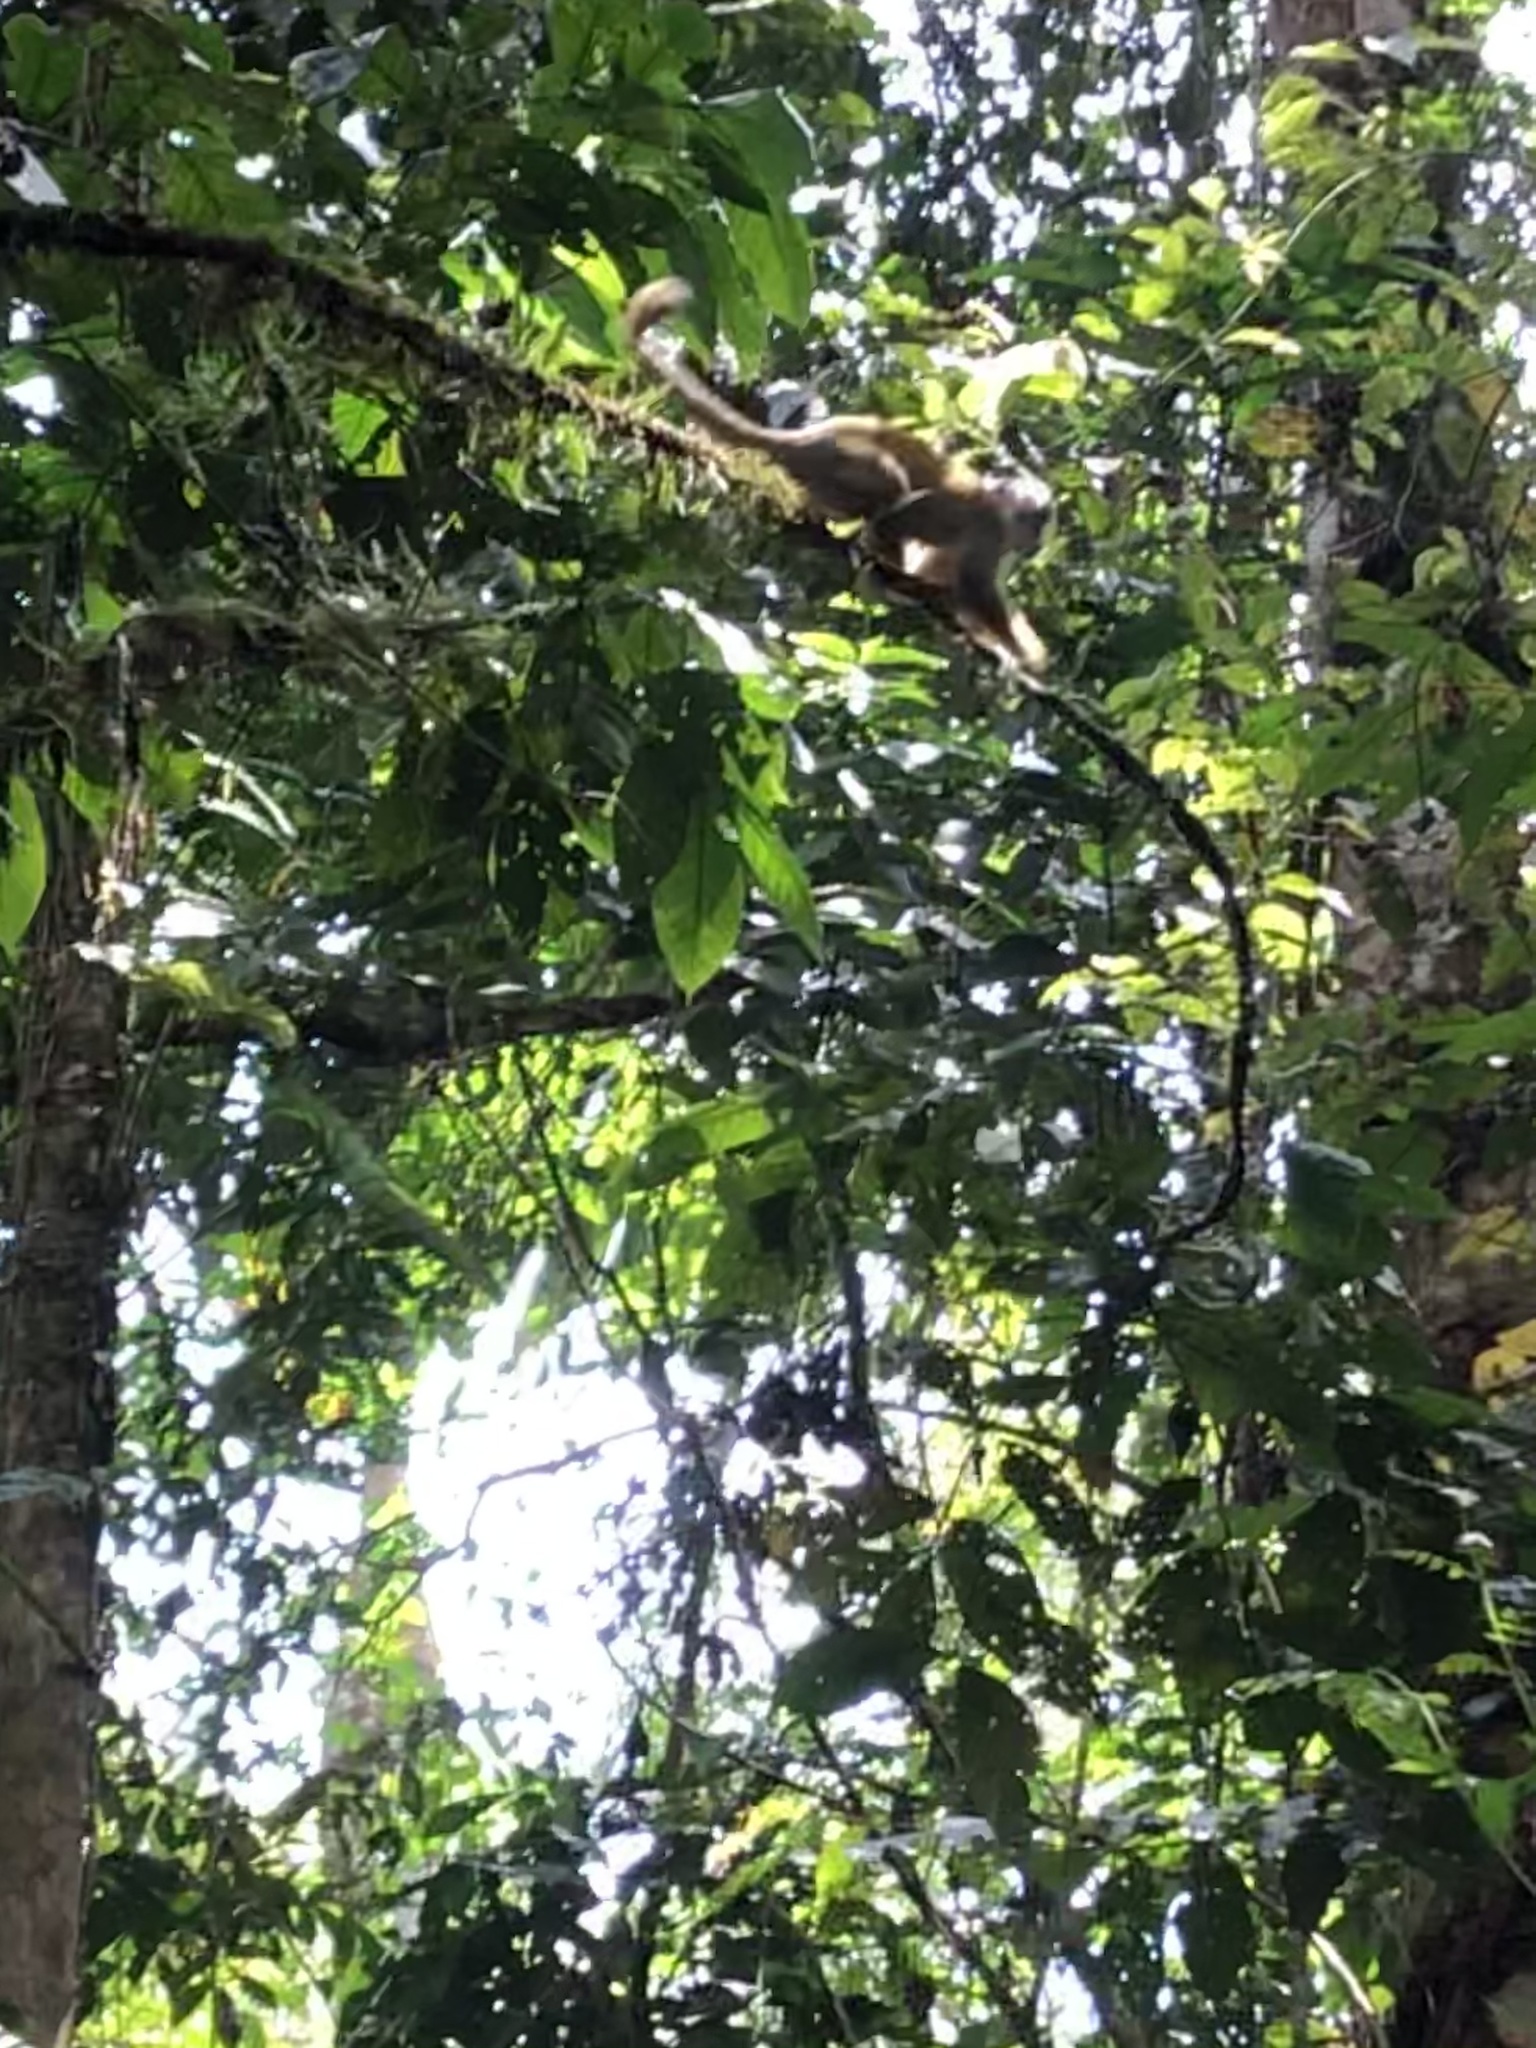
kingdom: Animalia
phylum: Chordata
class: Mammalia
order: Primates
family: Cebidae
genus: Saimiri
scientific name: Saimiri boliviensis
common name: Black-capped squirrel monkey
